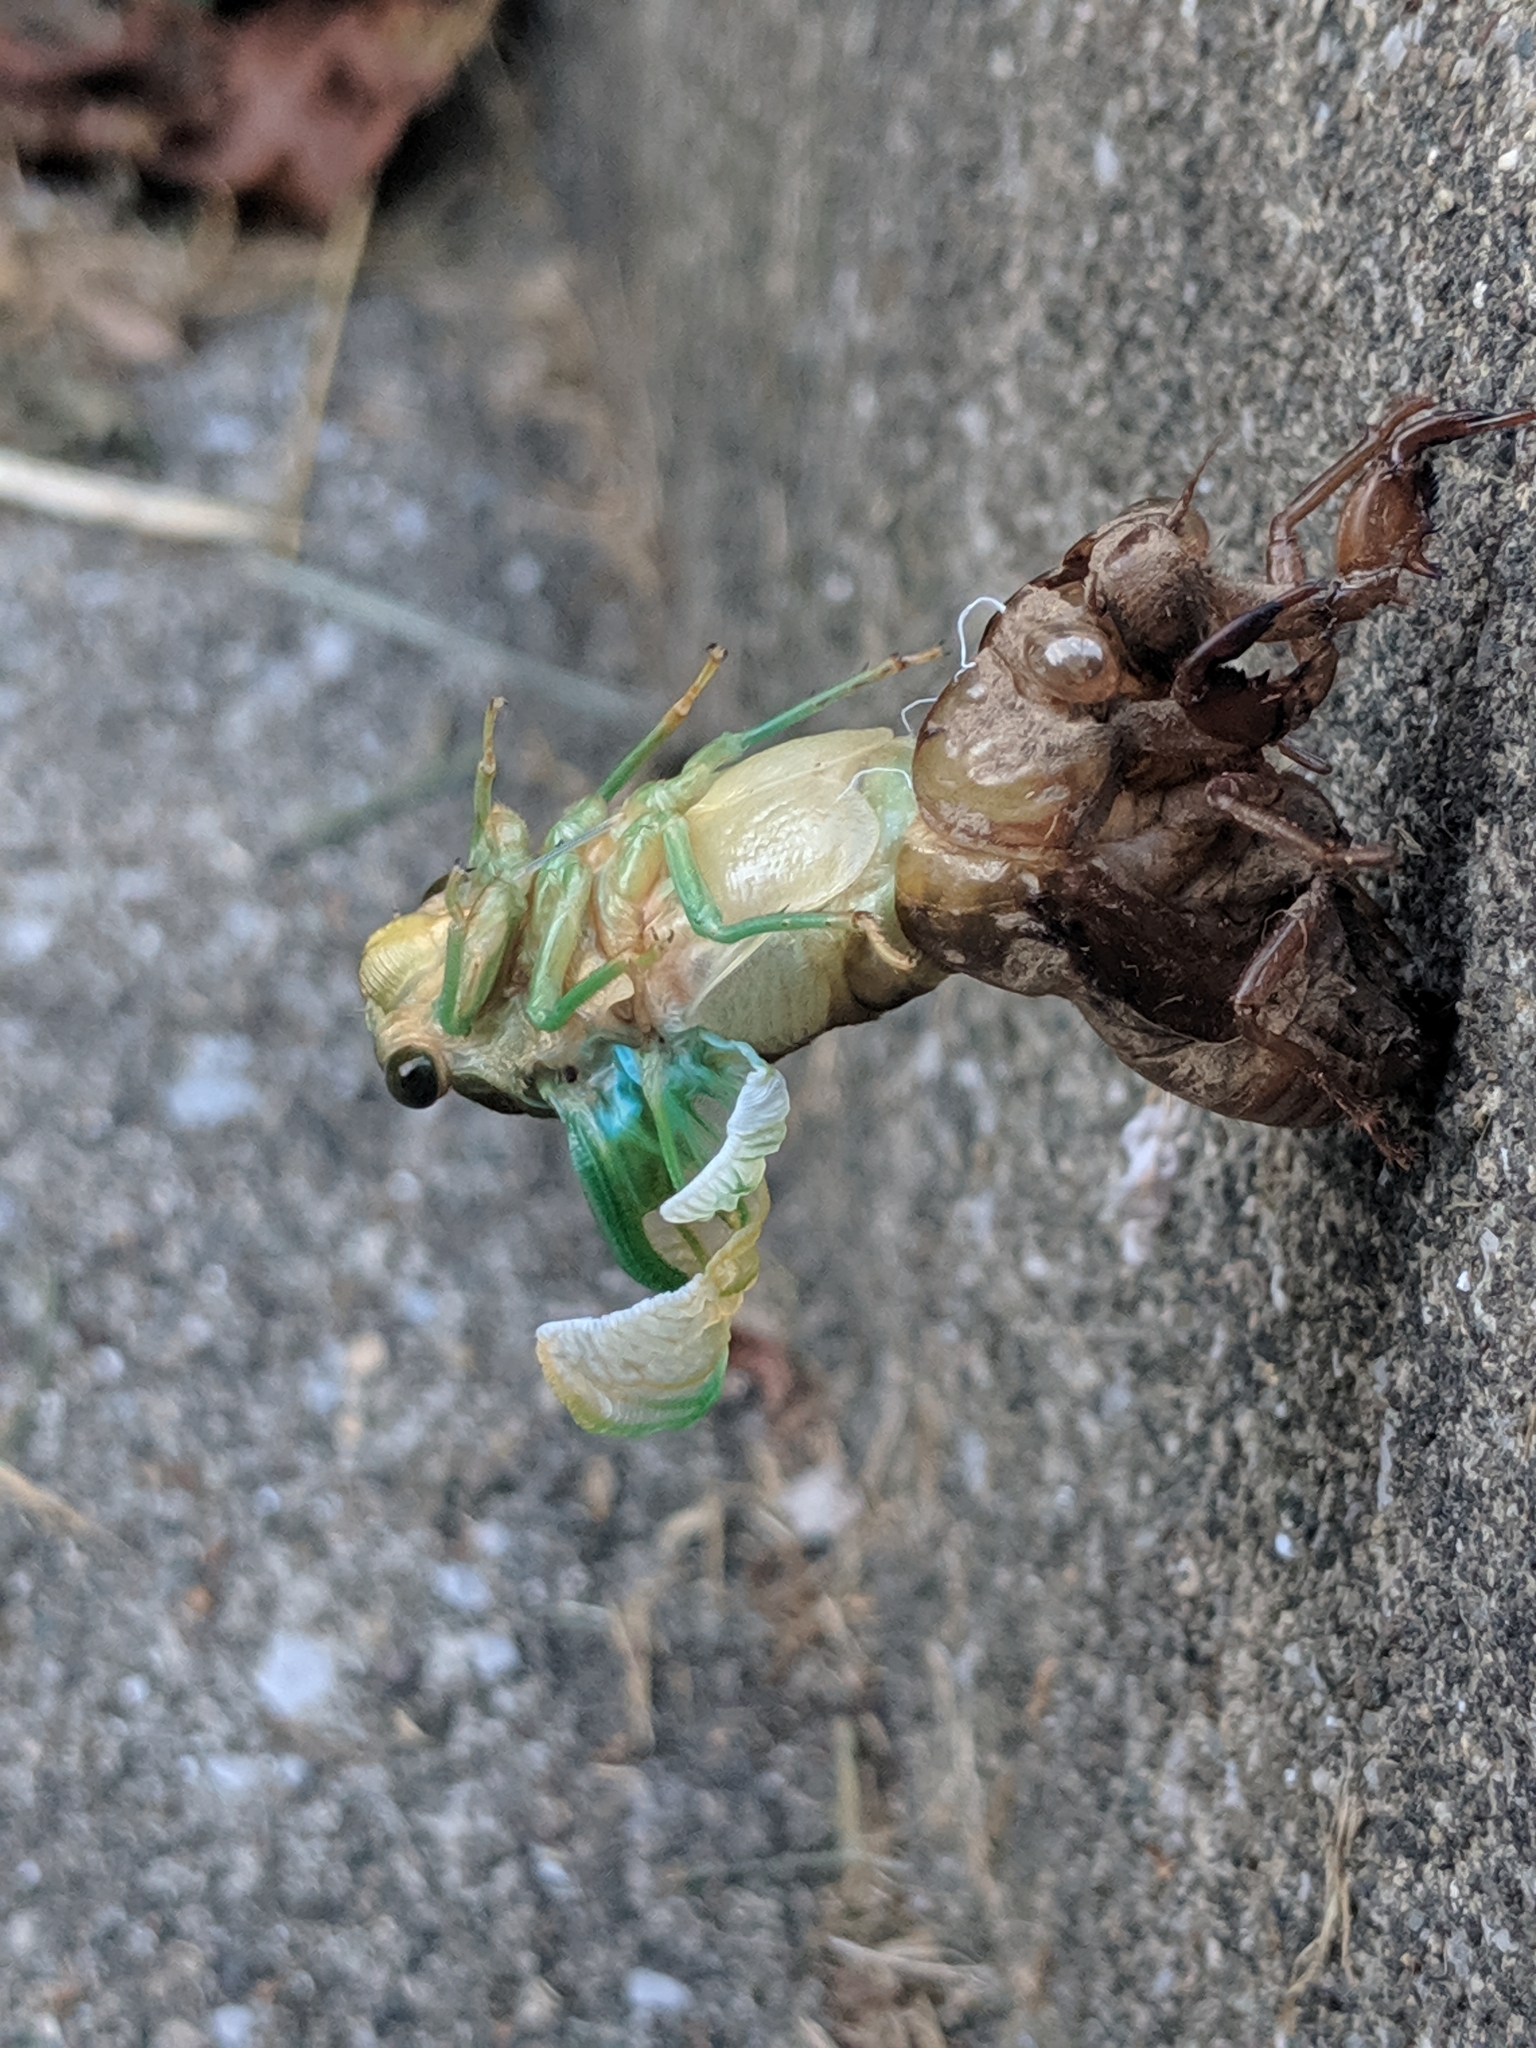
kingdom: Animalia
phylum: Arthropoda
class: Insecta
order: Hemiptera
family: Cicadidae
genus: Neotibicen
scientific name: Neotibicen tibicen
